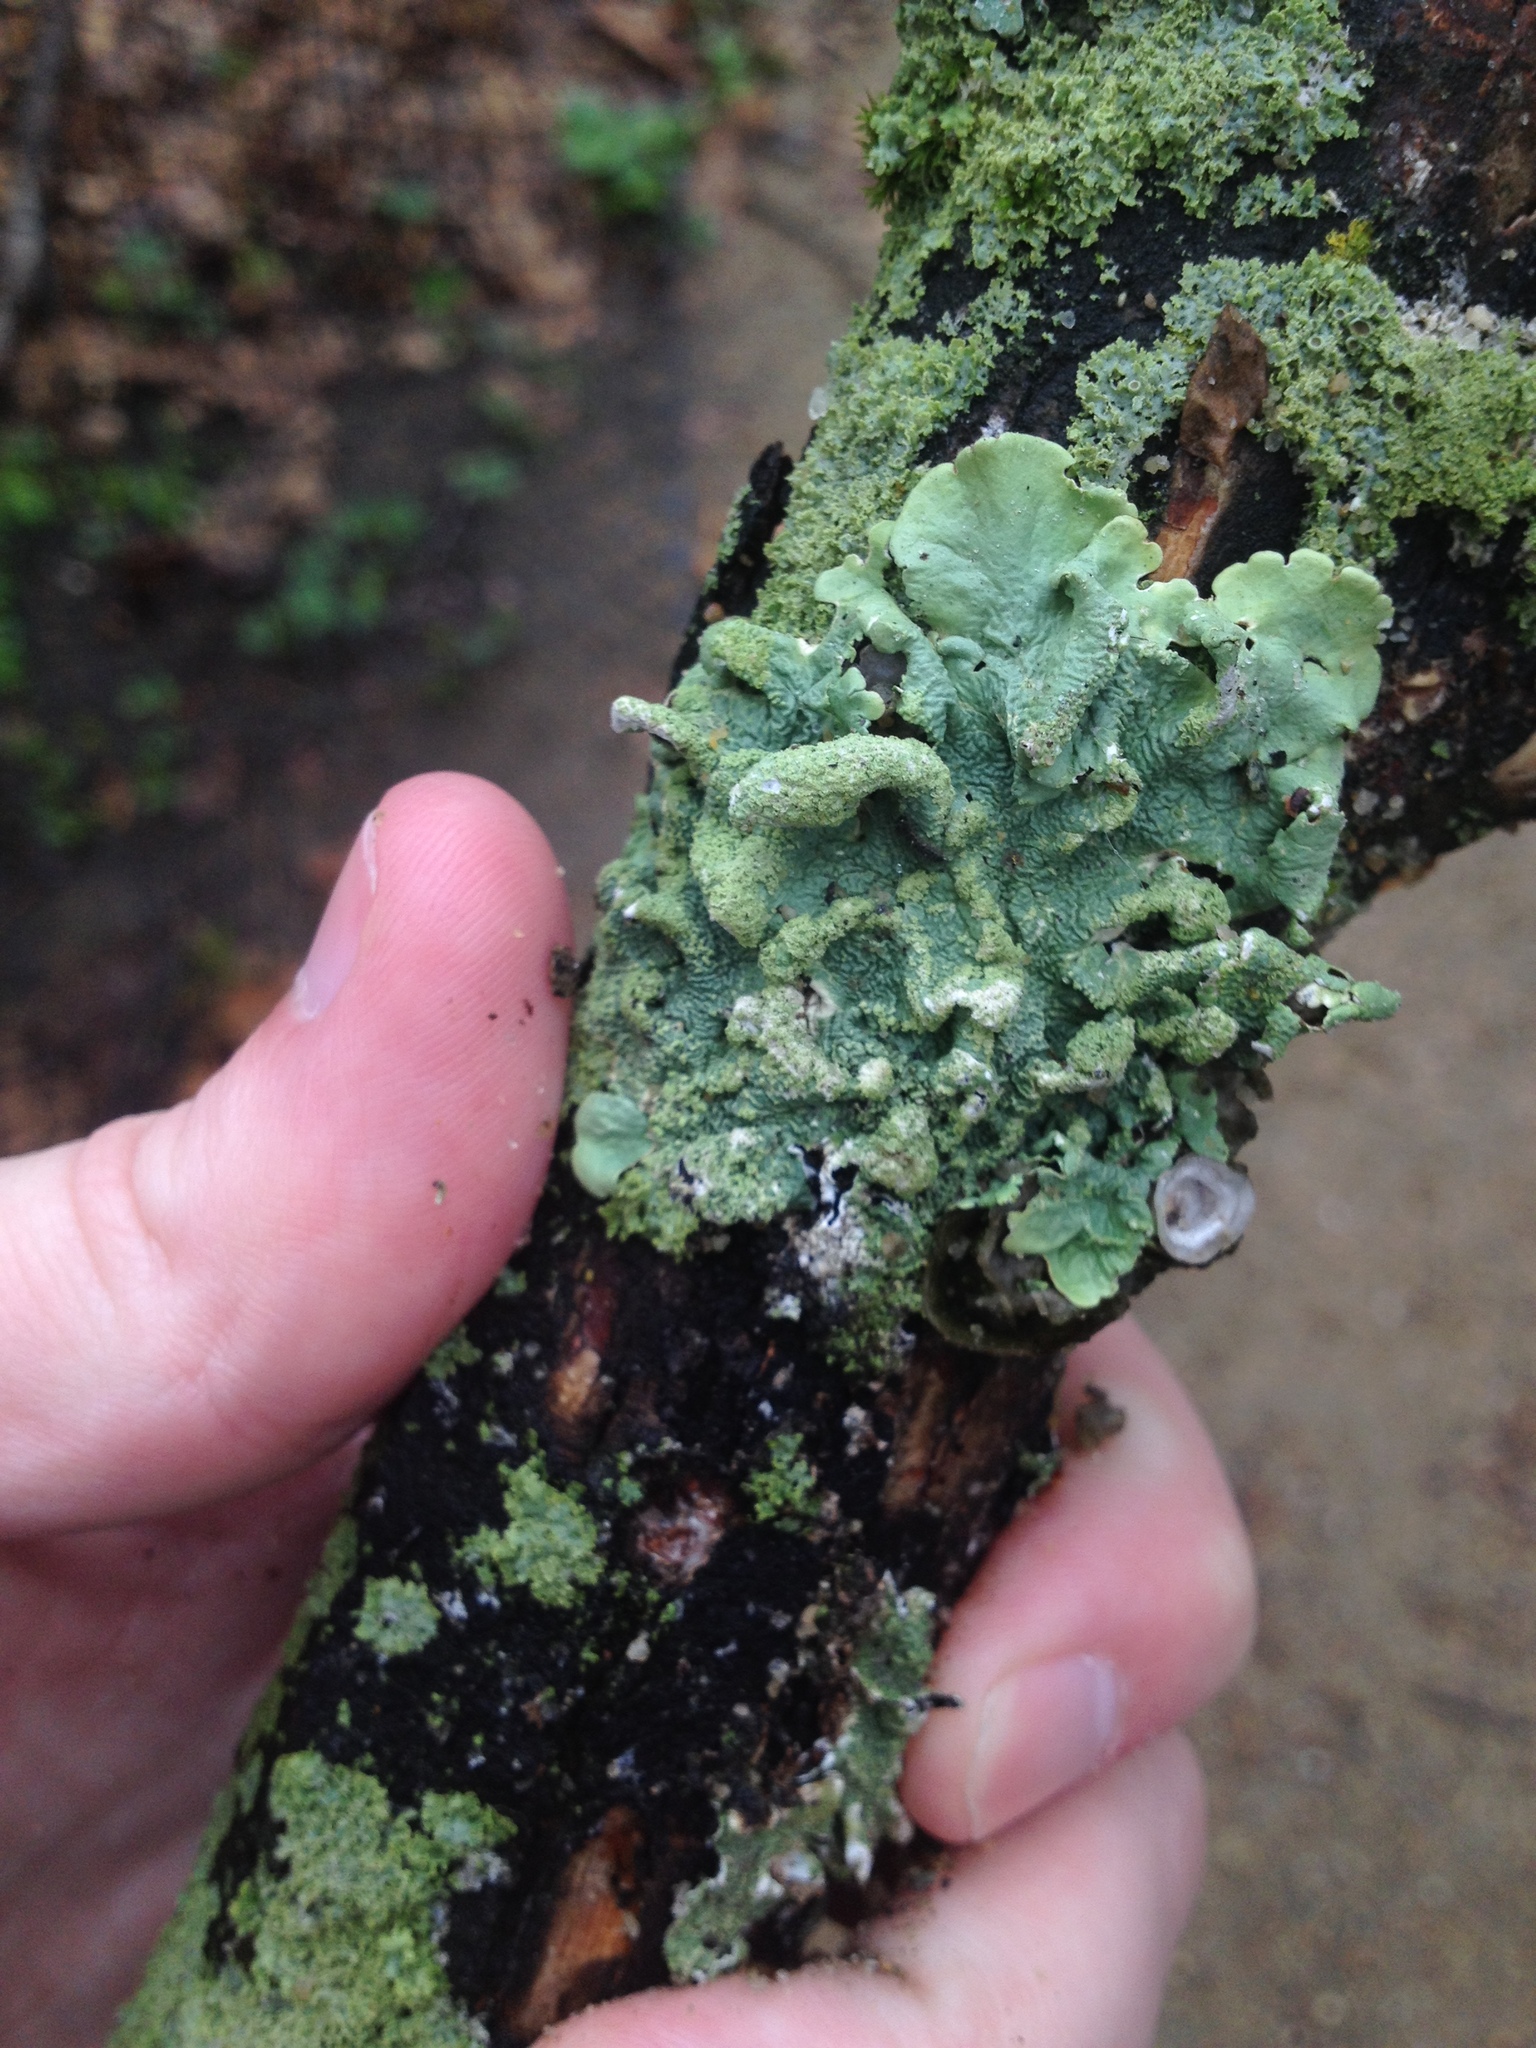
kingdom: Fungi
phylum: Ascomycota
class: Lecanoromycetes
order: Lecanorales
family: Parmeliaceae
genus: Flavoparmelia
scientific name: Flavoparmelia caperata
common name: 40-mile per hour lichen
